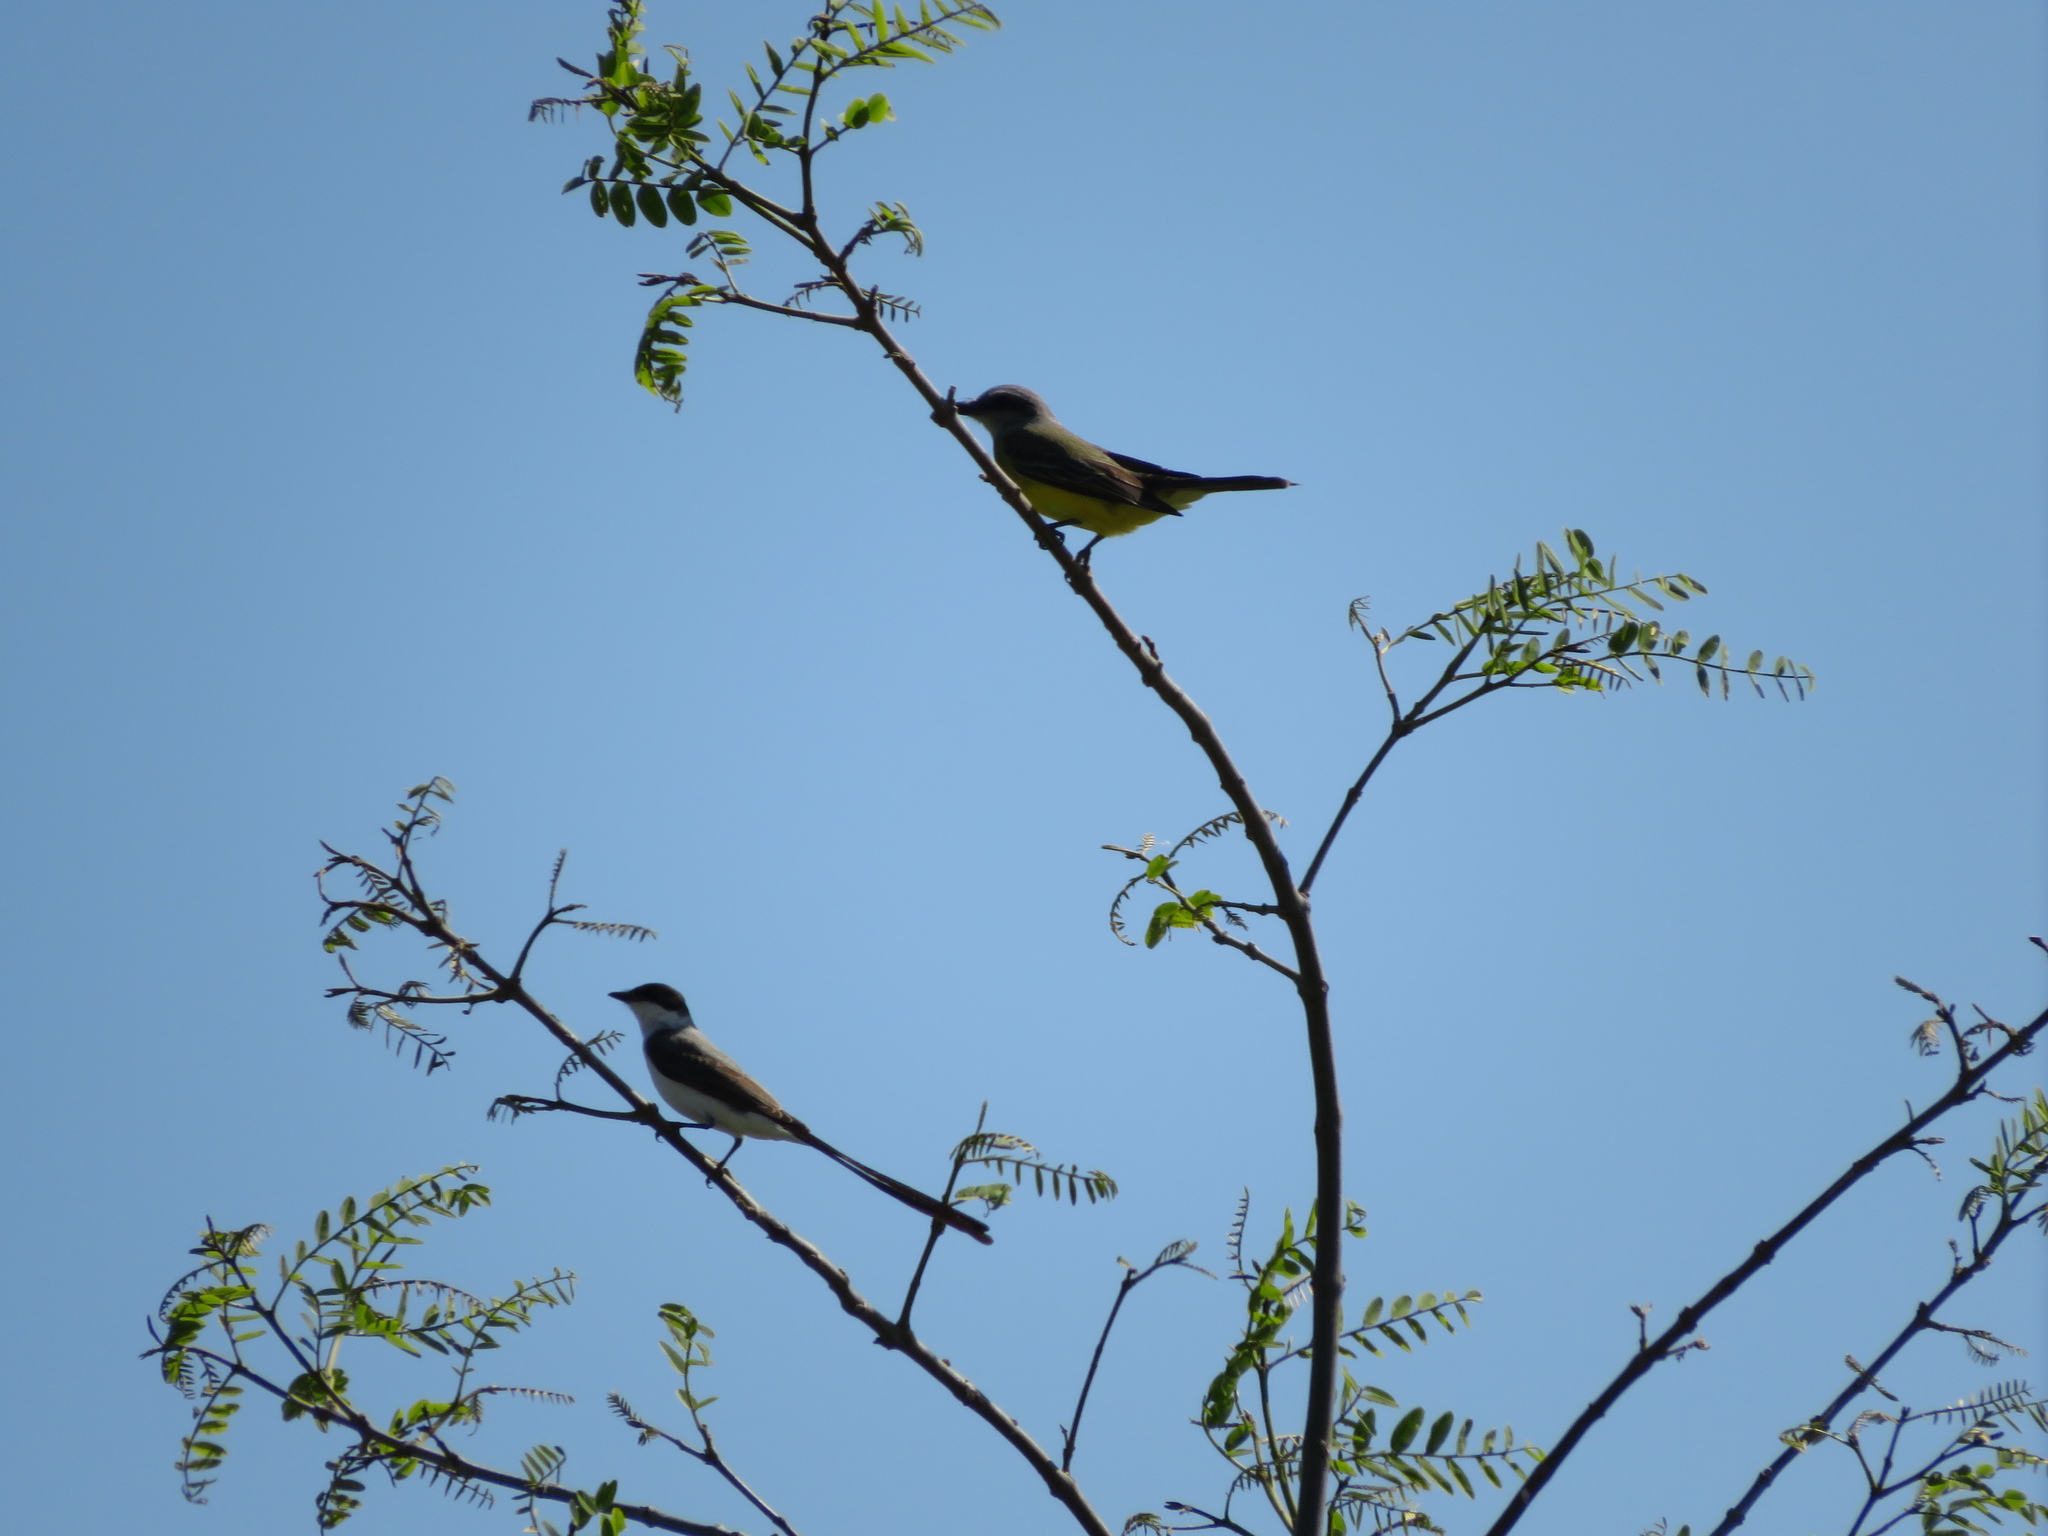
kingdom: Animalia
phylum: Chordata
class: Aves
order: Passeriformes
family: Tyrannidae
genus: Tyrannus
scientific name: Tyrannus melancholicus
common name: Tropical kingbird
